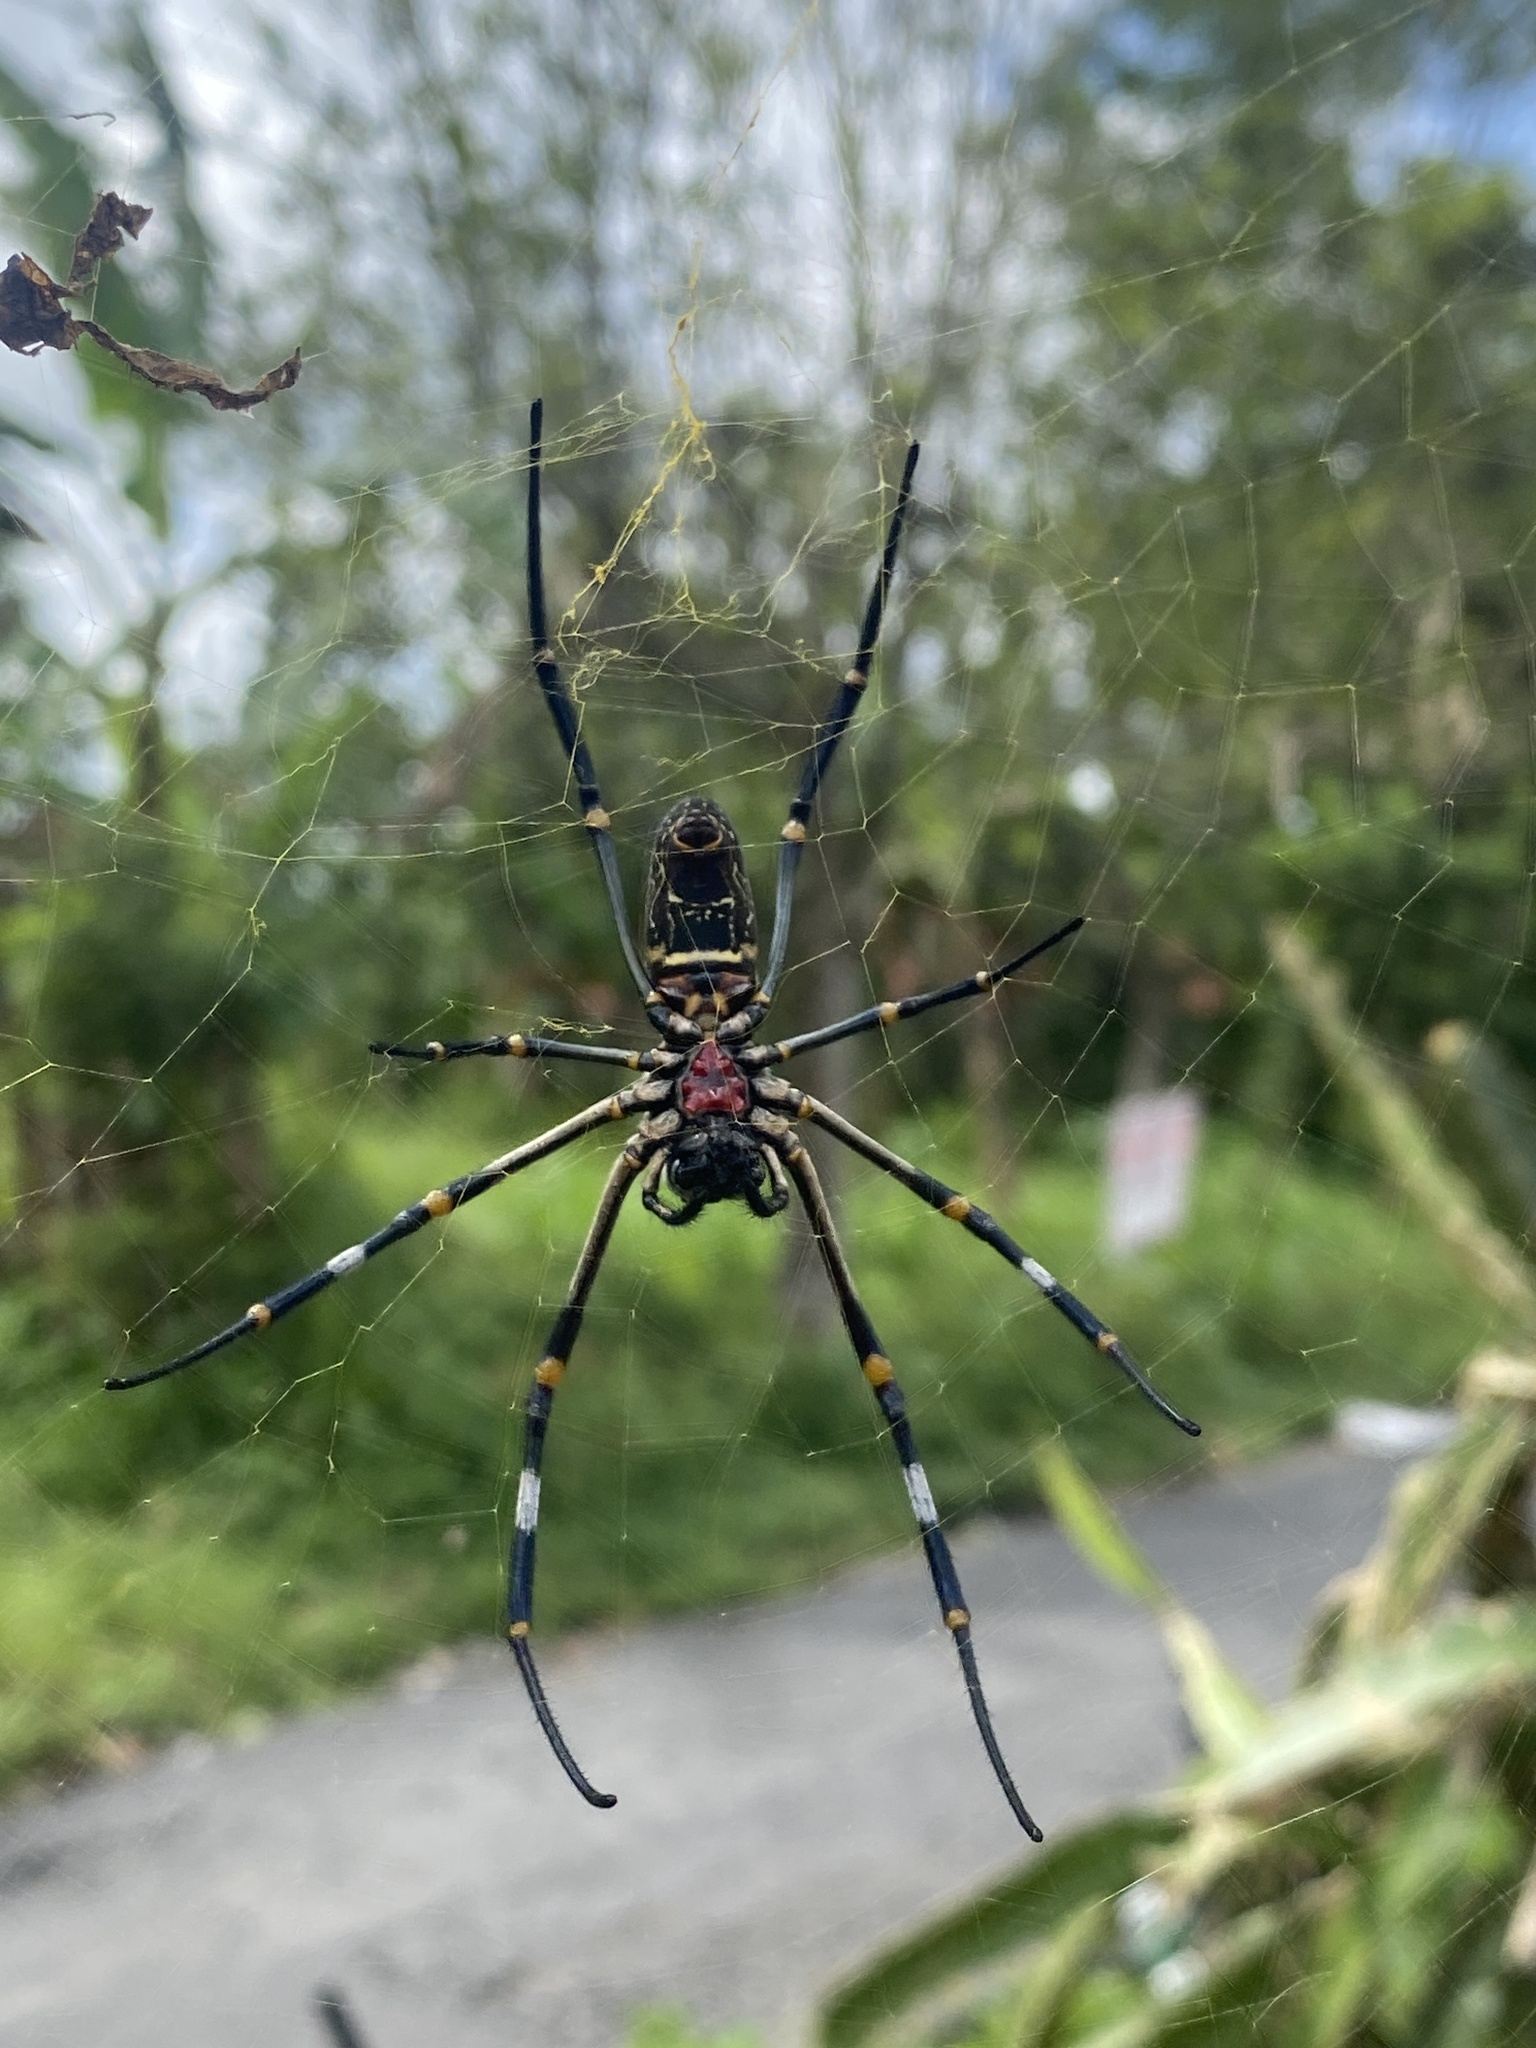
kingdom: Animalia
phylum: Arthropoda
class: Arachnida
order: Araneae
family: Araneidae
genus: Nephila
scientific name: Nephila vitiana
